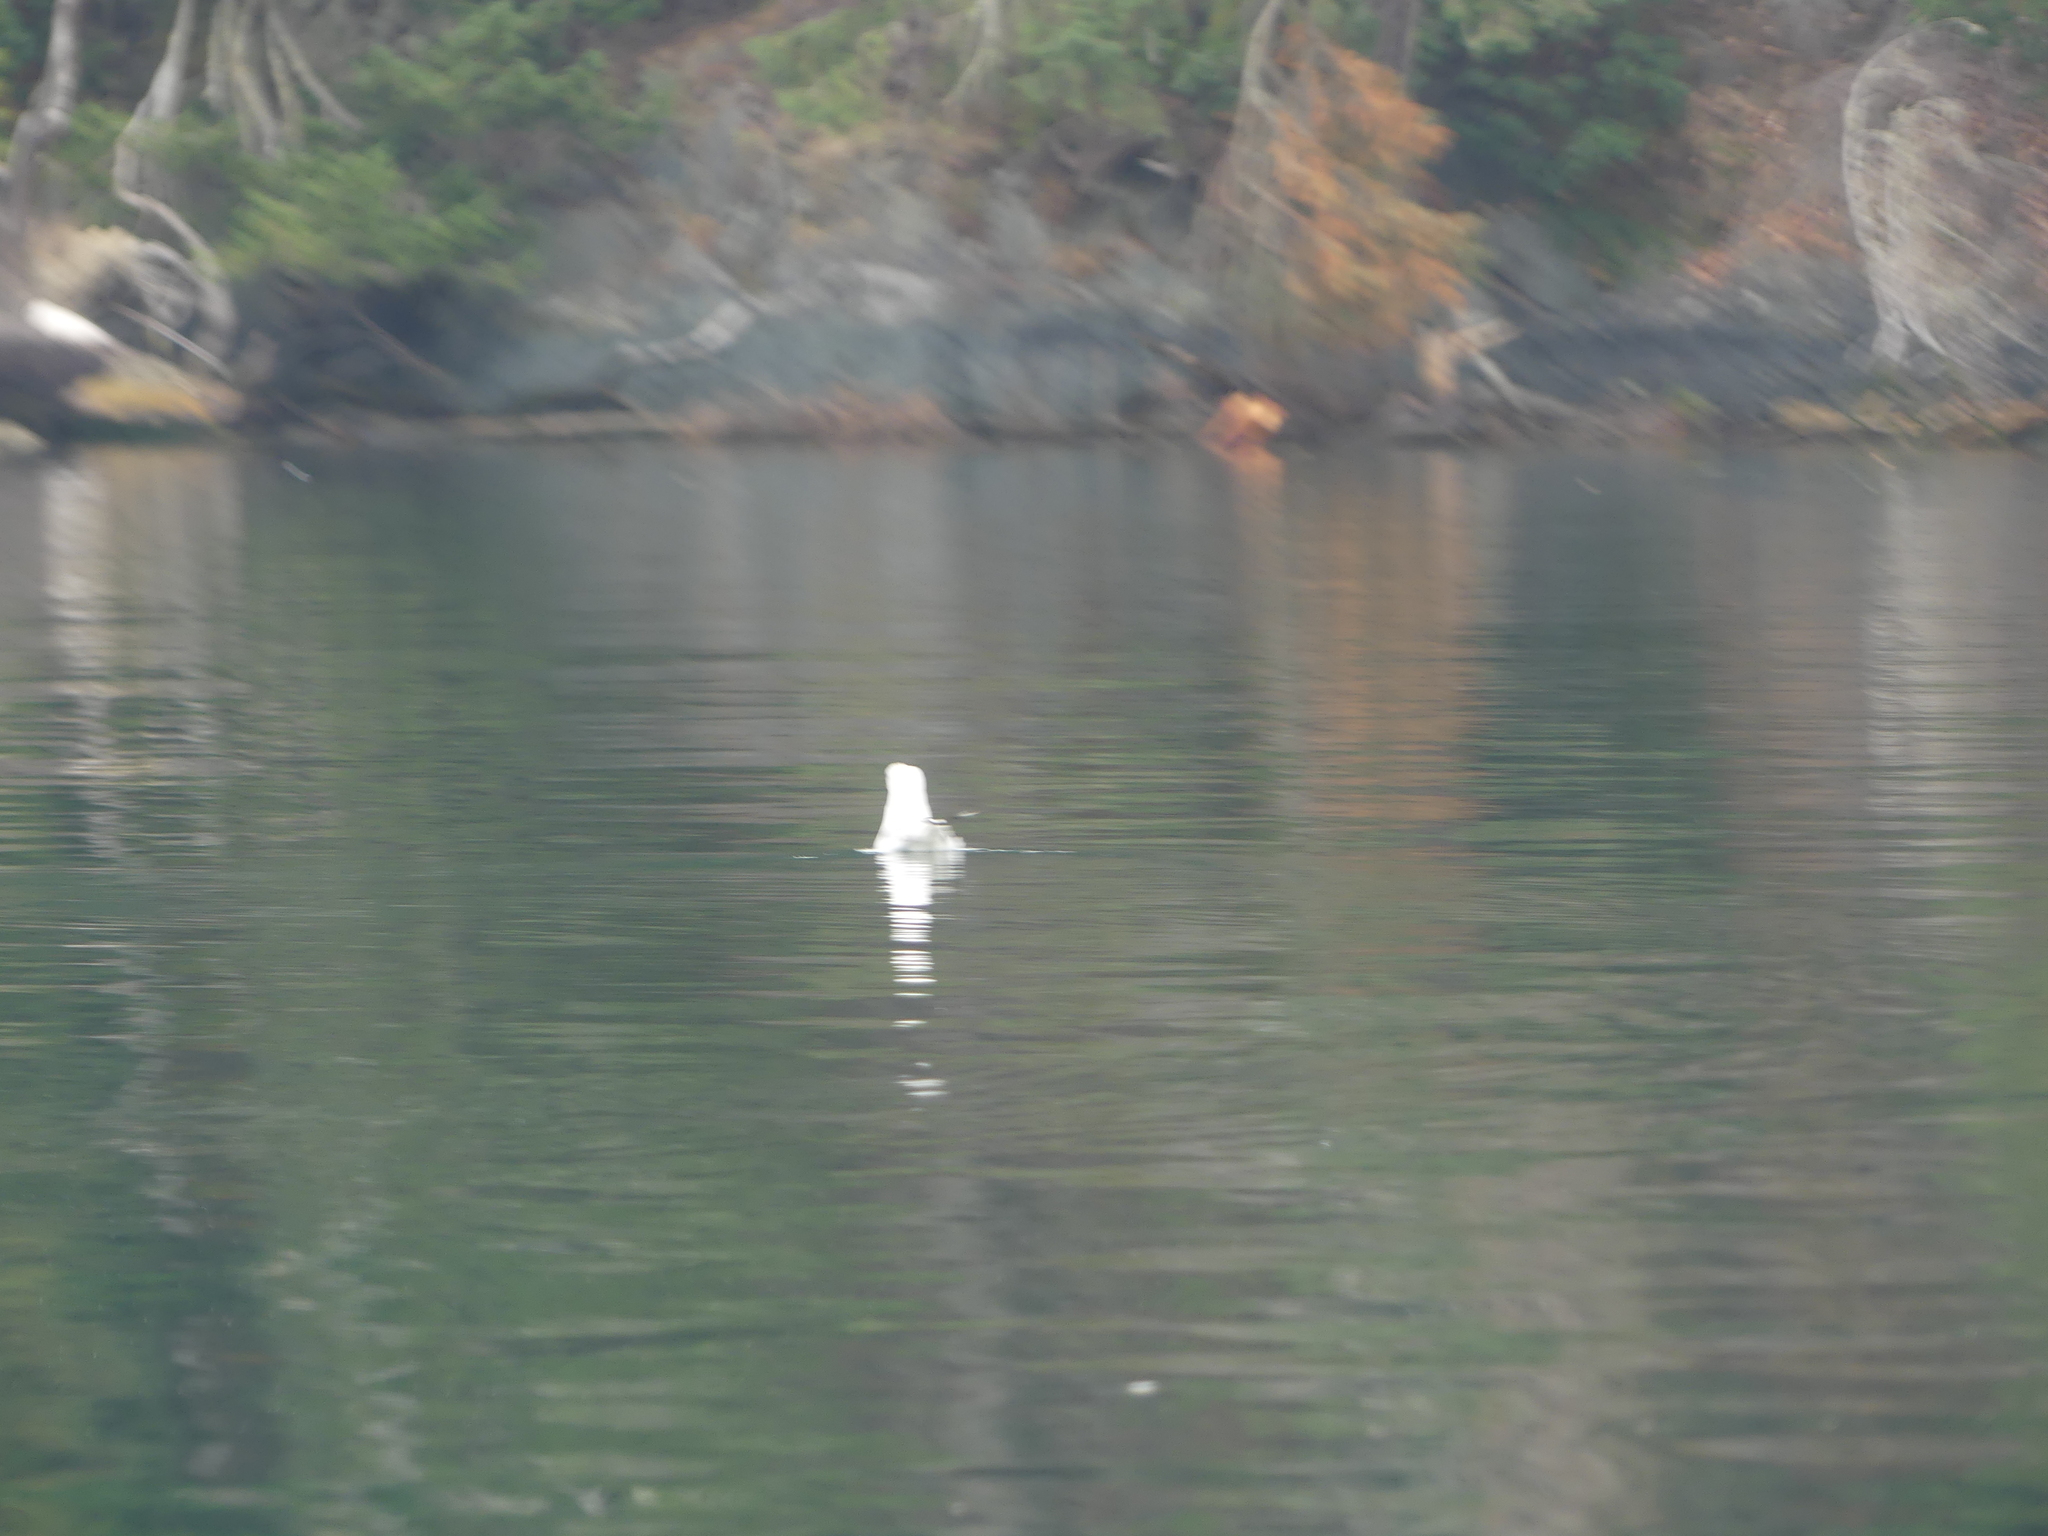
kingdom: Animalia
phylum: Chordata
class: Aves
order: Charadriiformes
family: Laridae
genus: Larus
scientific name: Larus brachyrhynchus
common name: Short-billed gull
